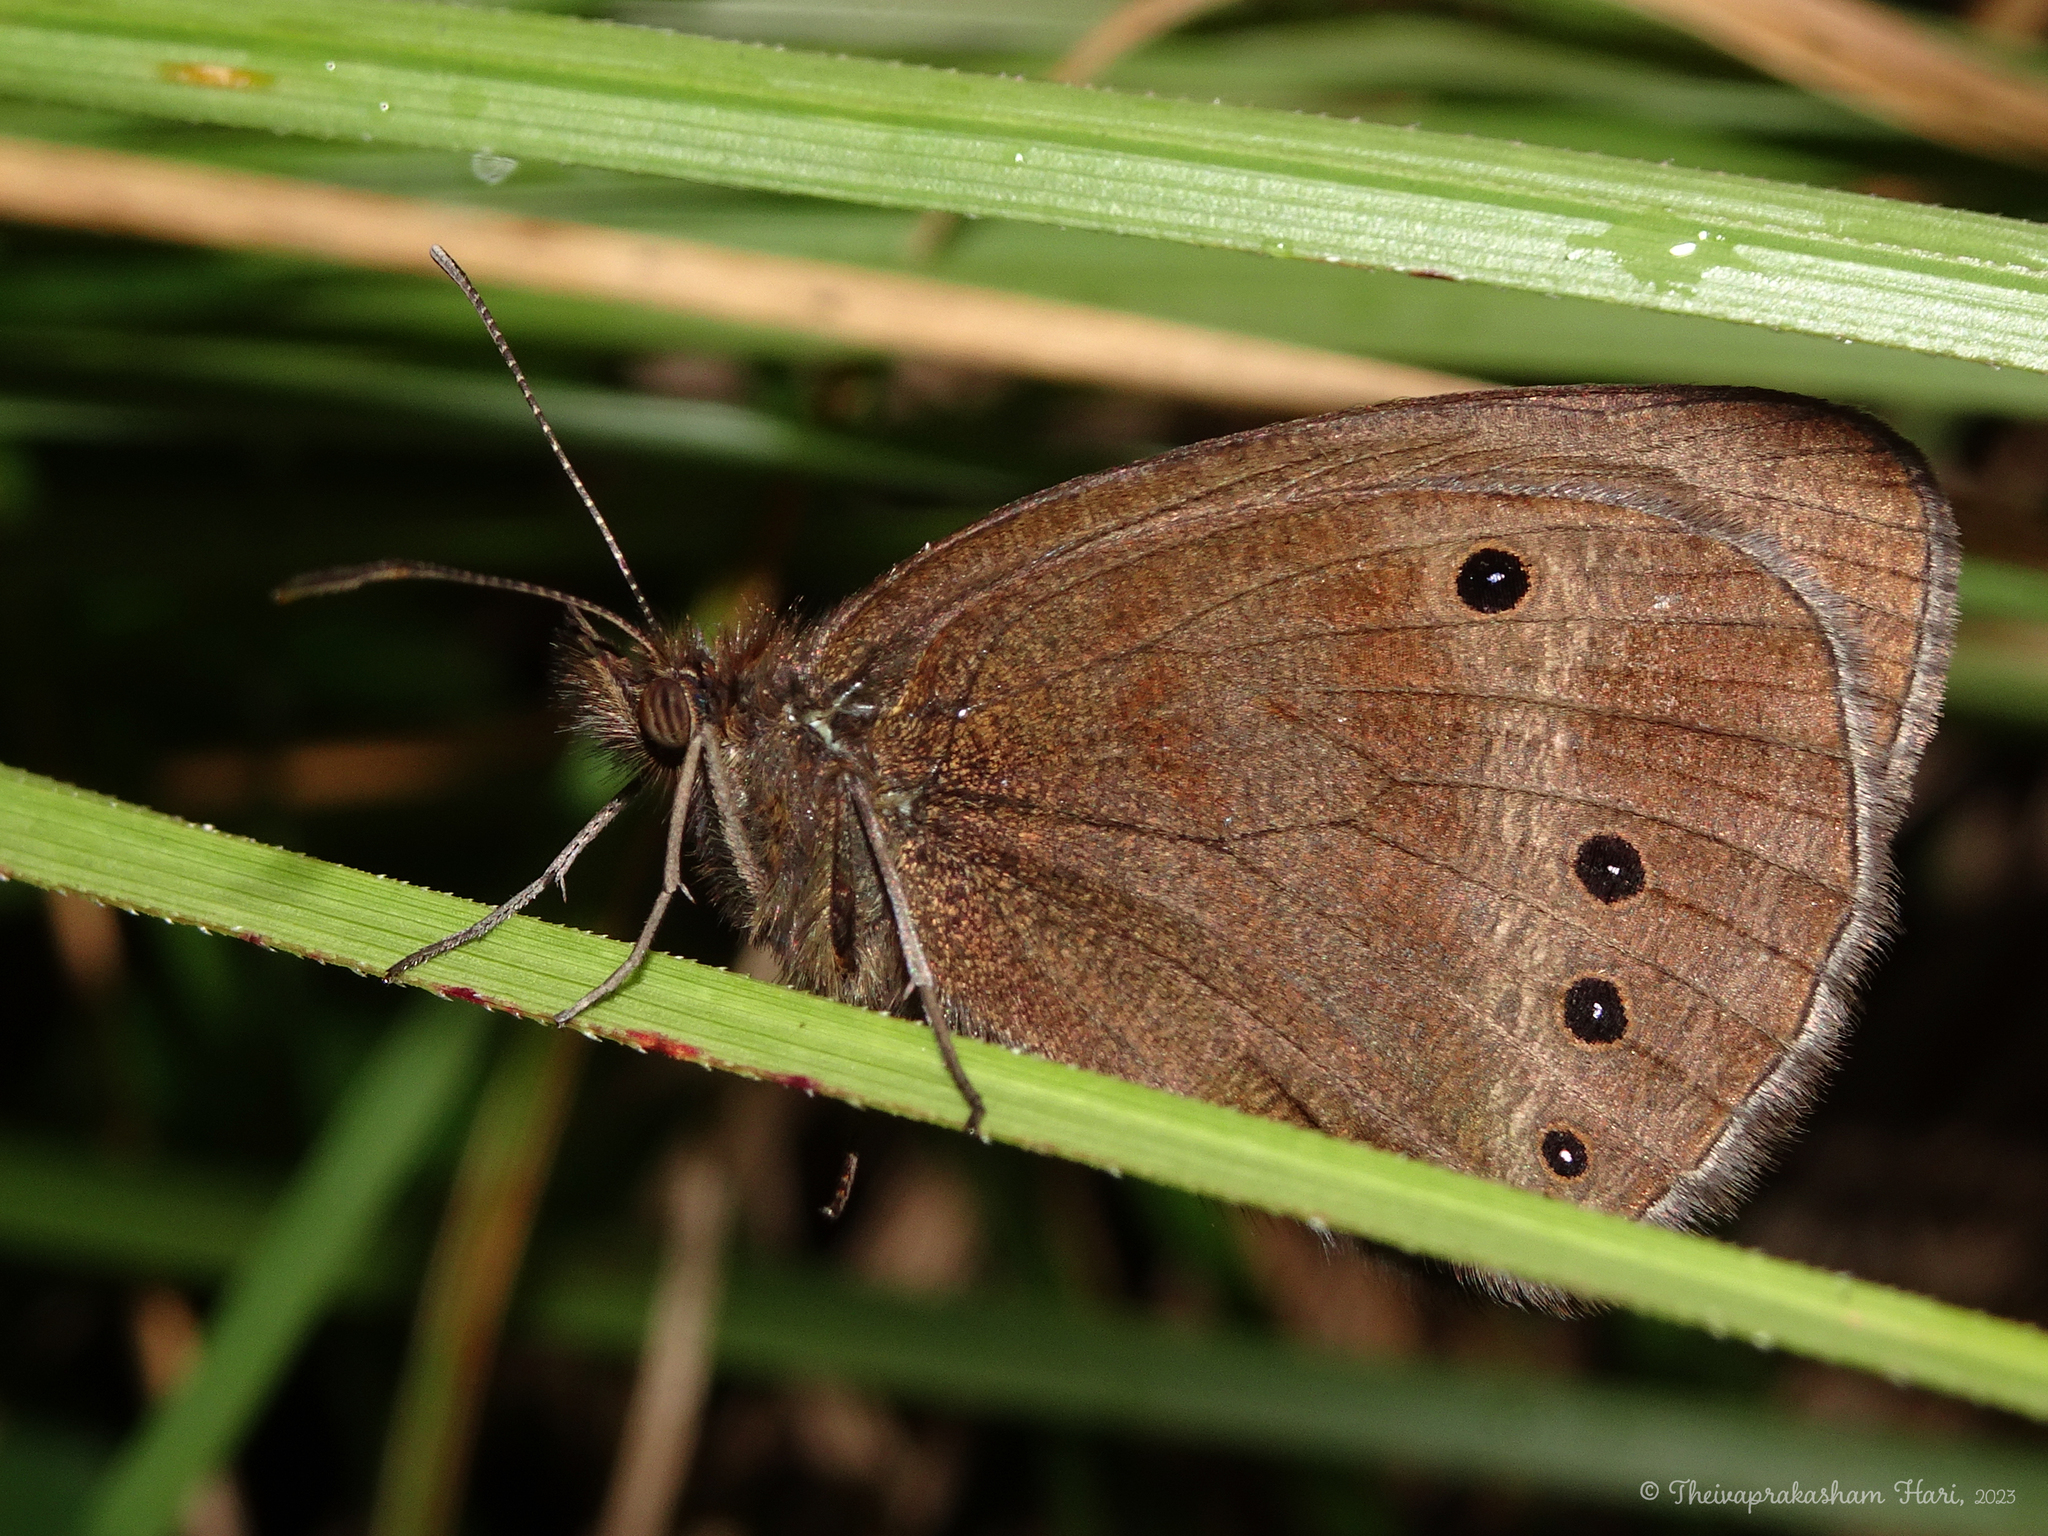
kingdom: Animalia
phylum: Arthropoda
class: Insecta
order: Lepidoptera
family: Nymphalidae
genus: Ypthima
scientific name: Ypthima ypthimoides
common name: Palni four-ring
